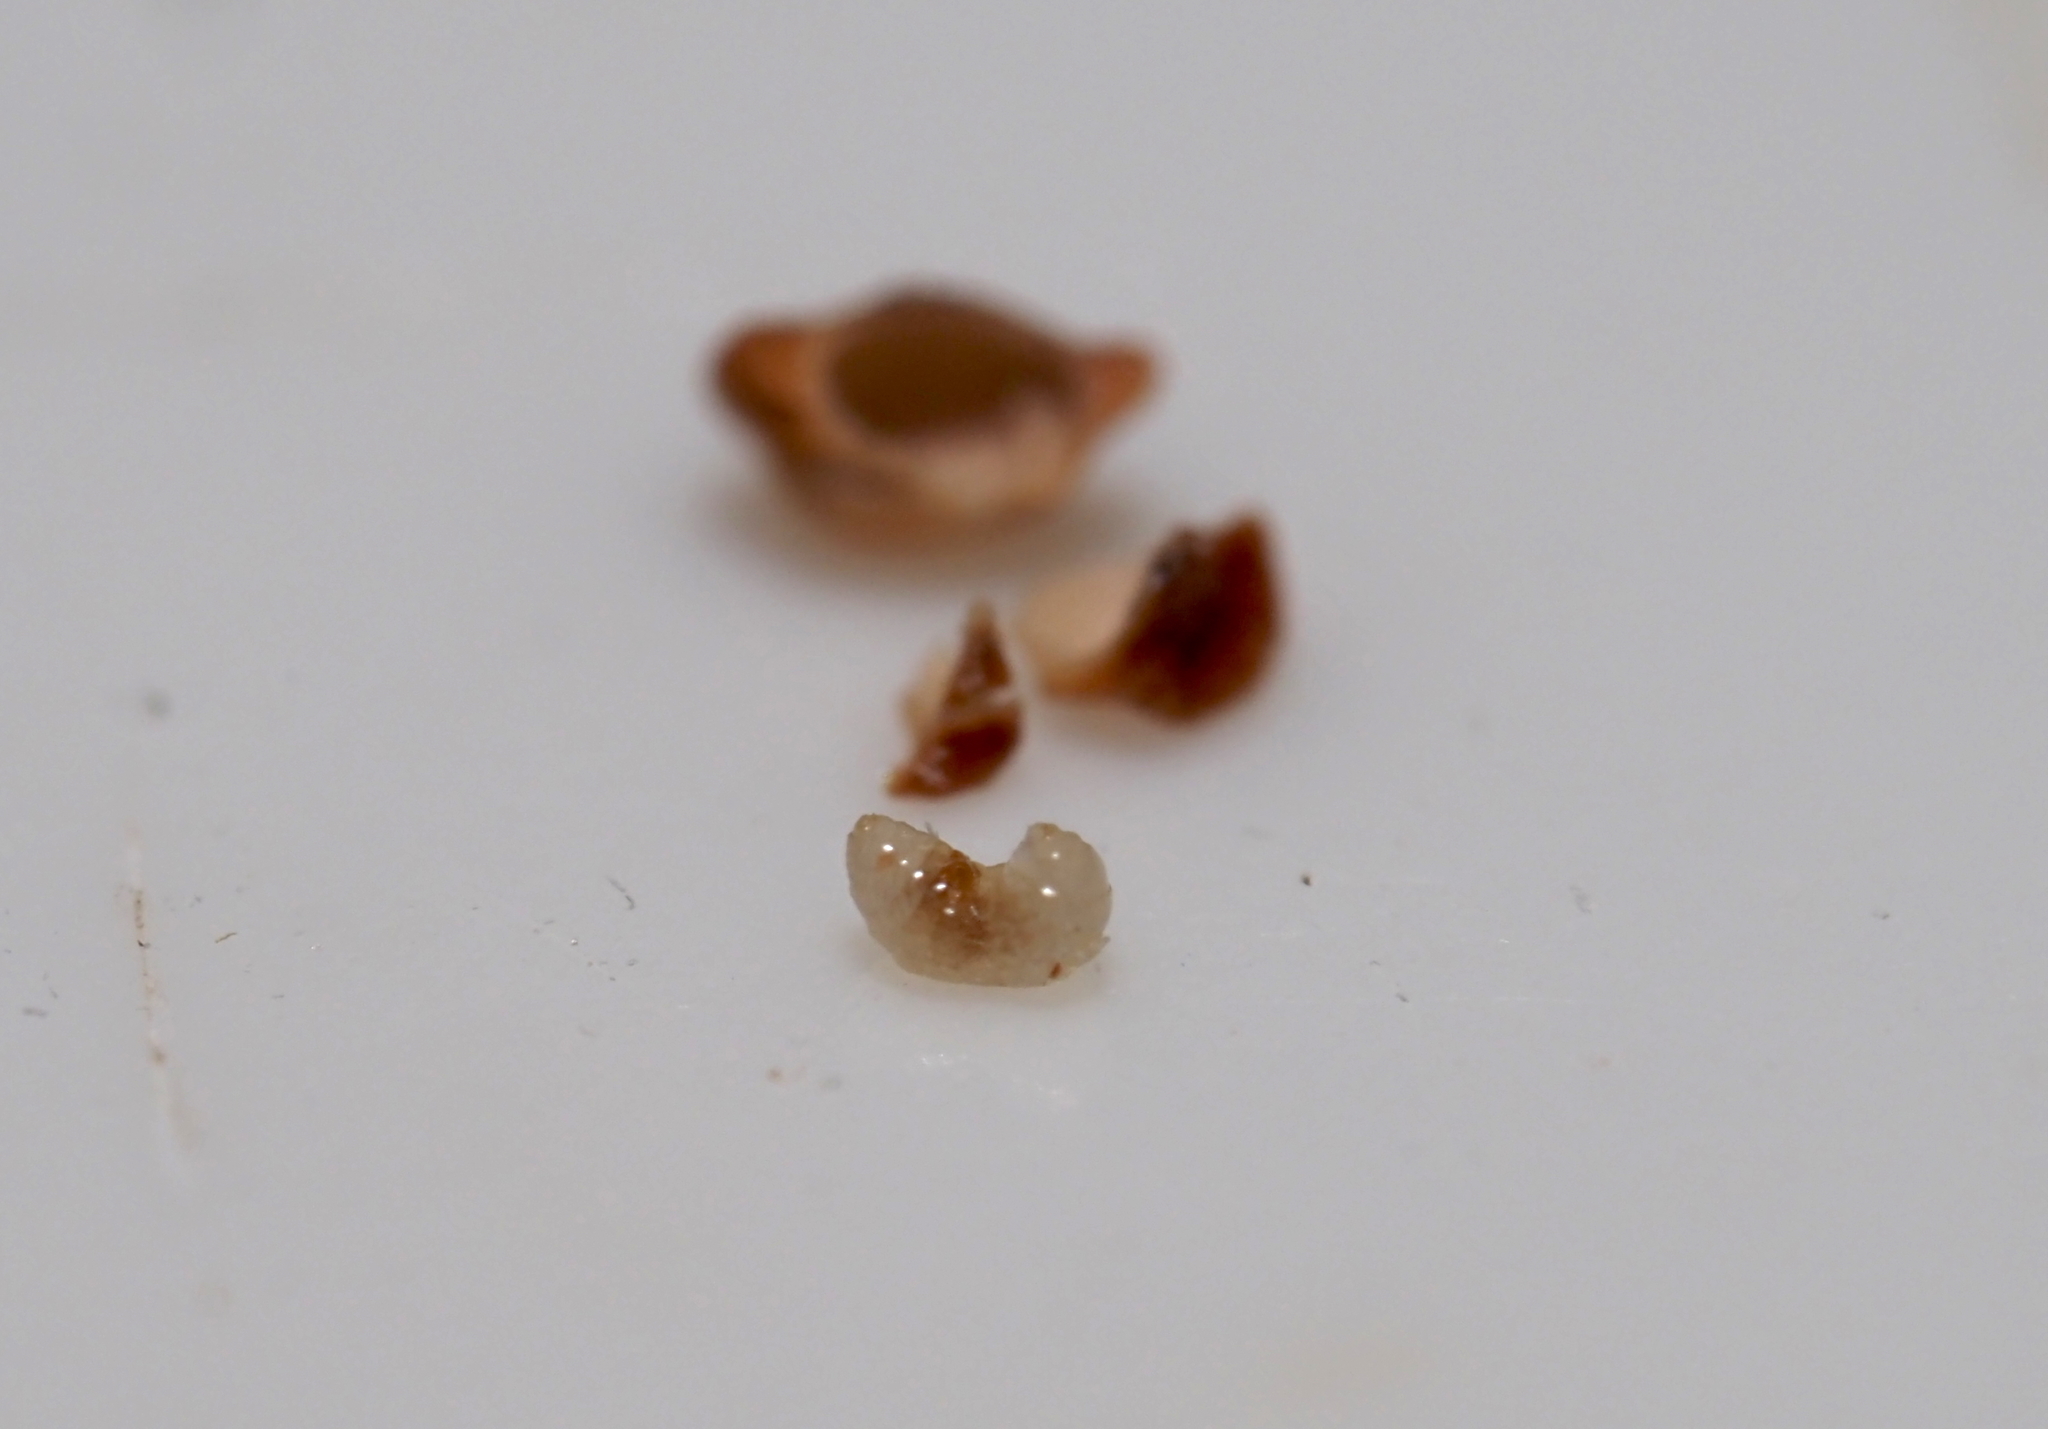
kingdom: Animalia
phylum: Arthropoda
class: Insecta
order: Hymenoptera
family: Cynipidae
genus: Neuroterus
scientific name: Neuroterus
